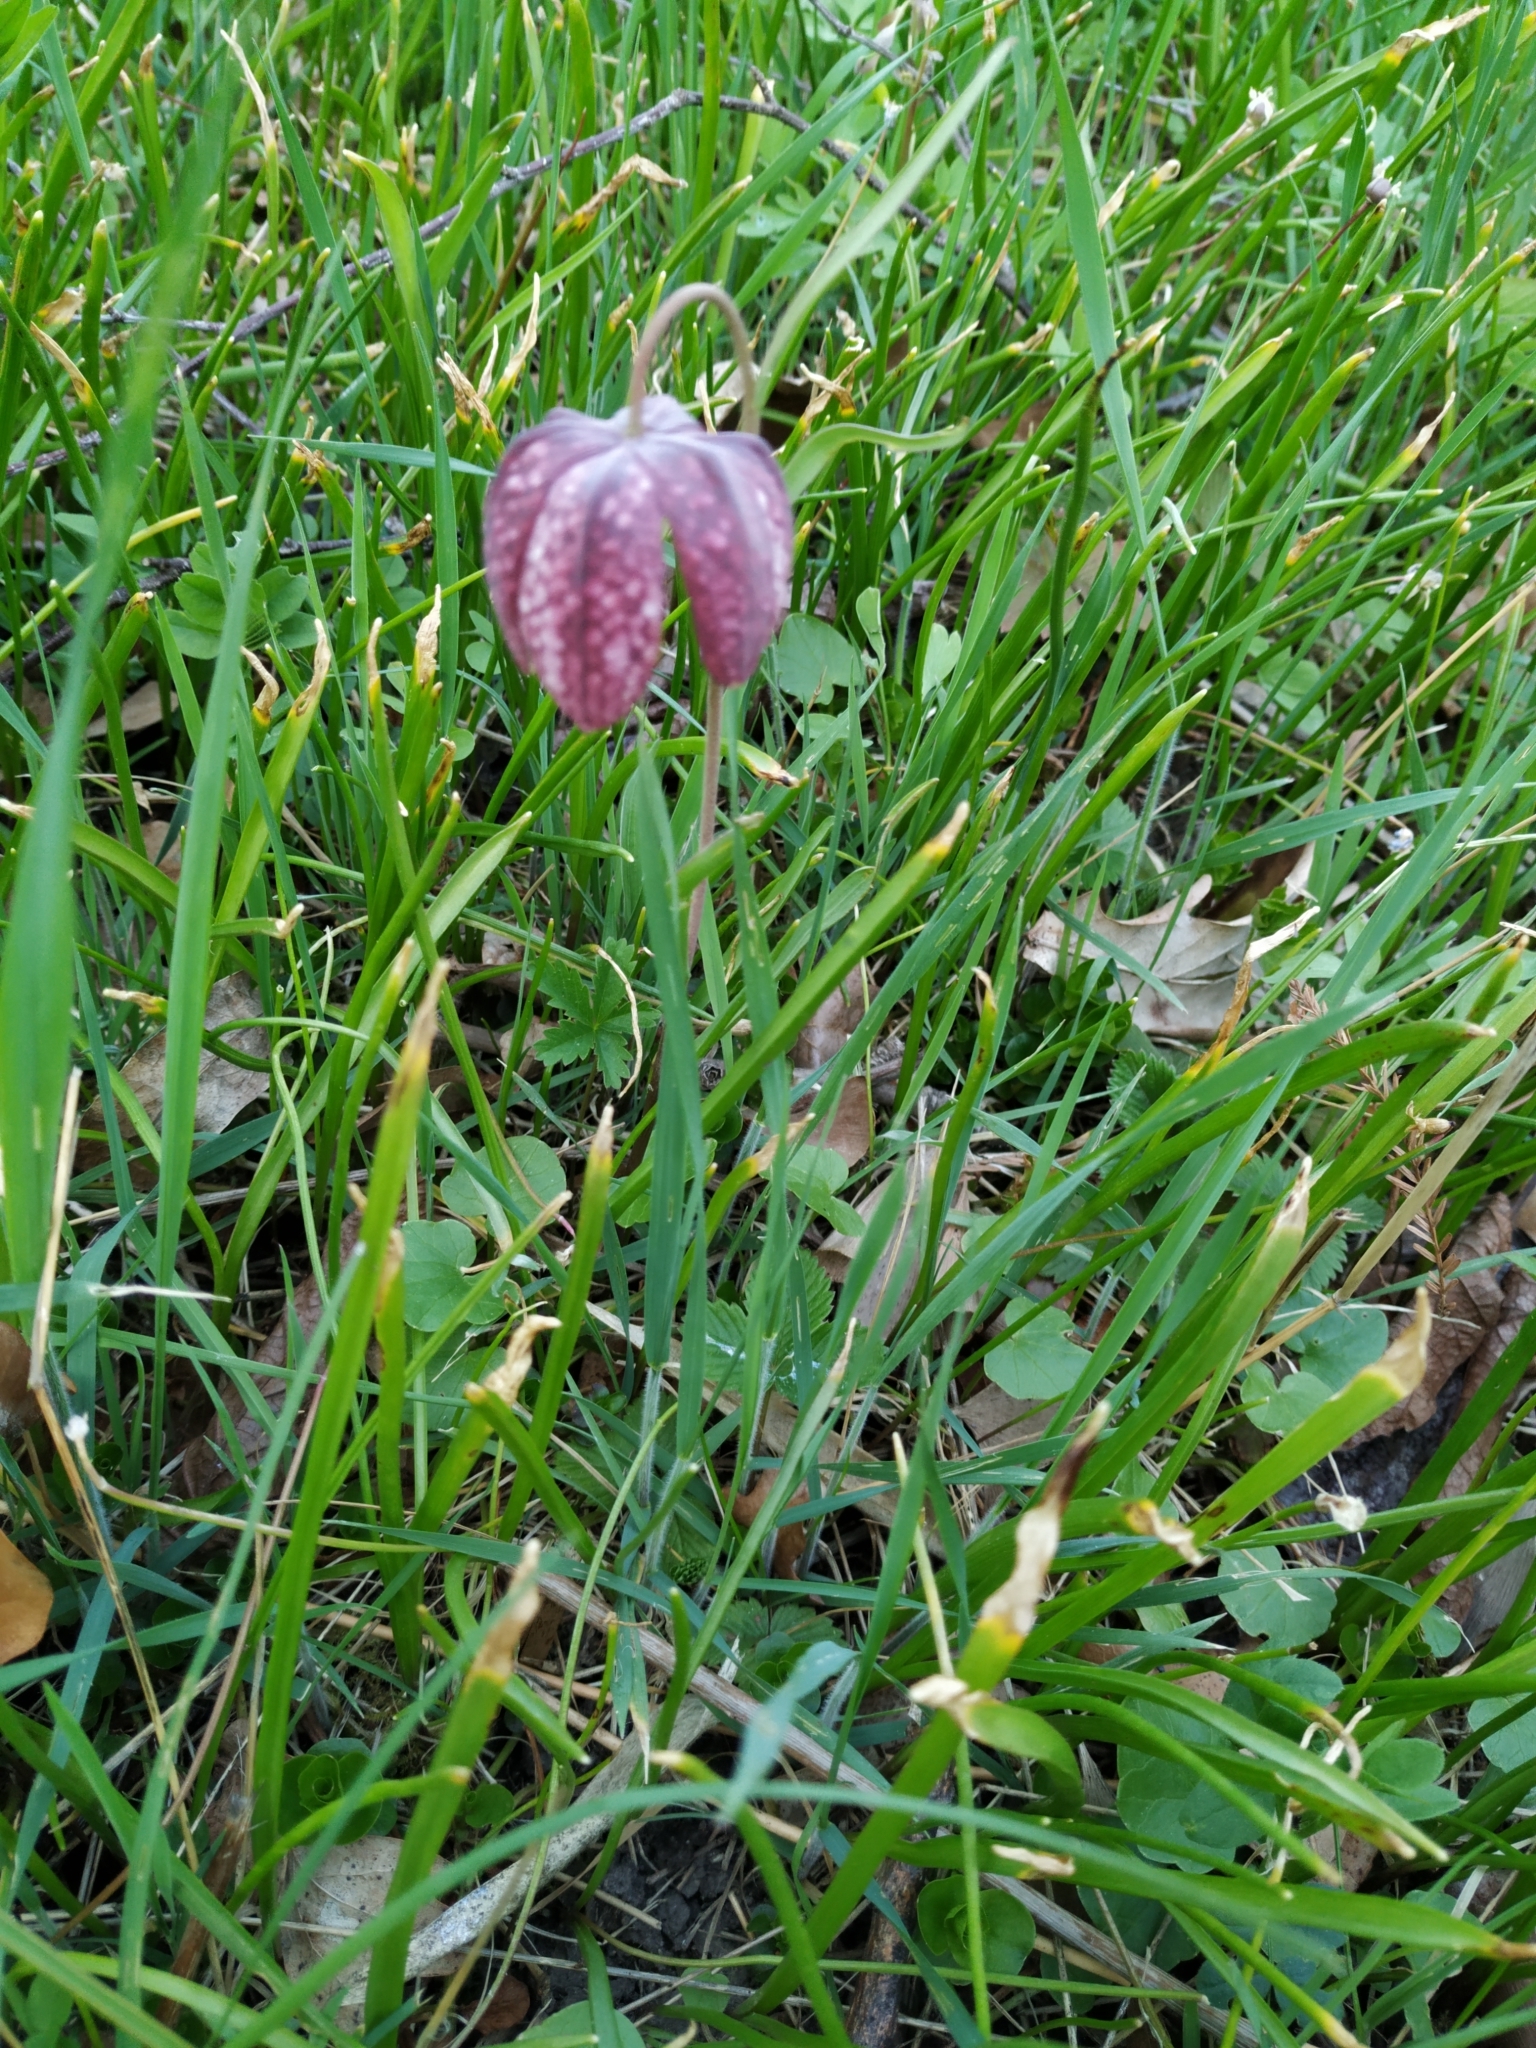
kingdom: Plantae
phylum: Tracheophyta
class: Liliopsida
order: Liliales
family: Liliaceae
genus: Fritillaria
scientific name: Fritillaria meleagris
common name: Fritillary
